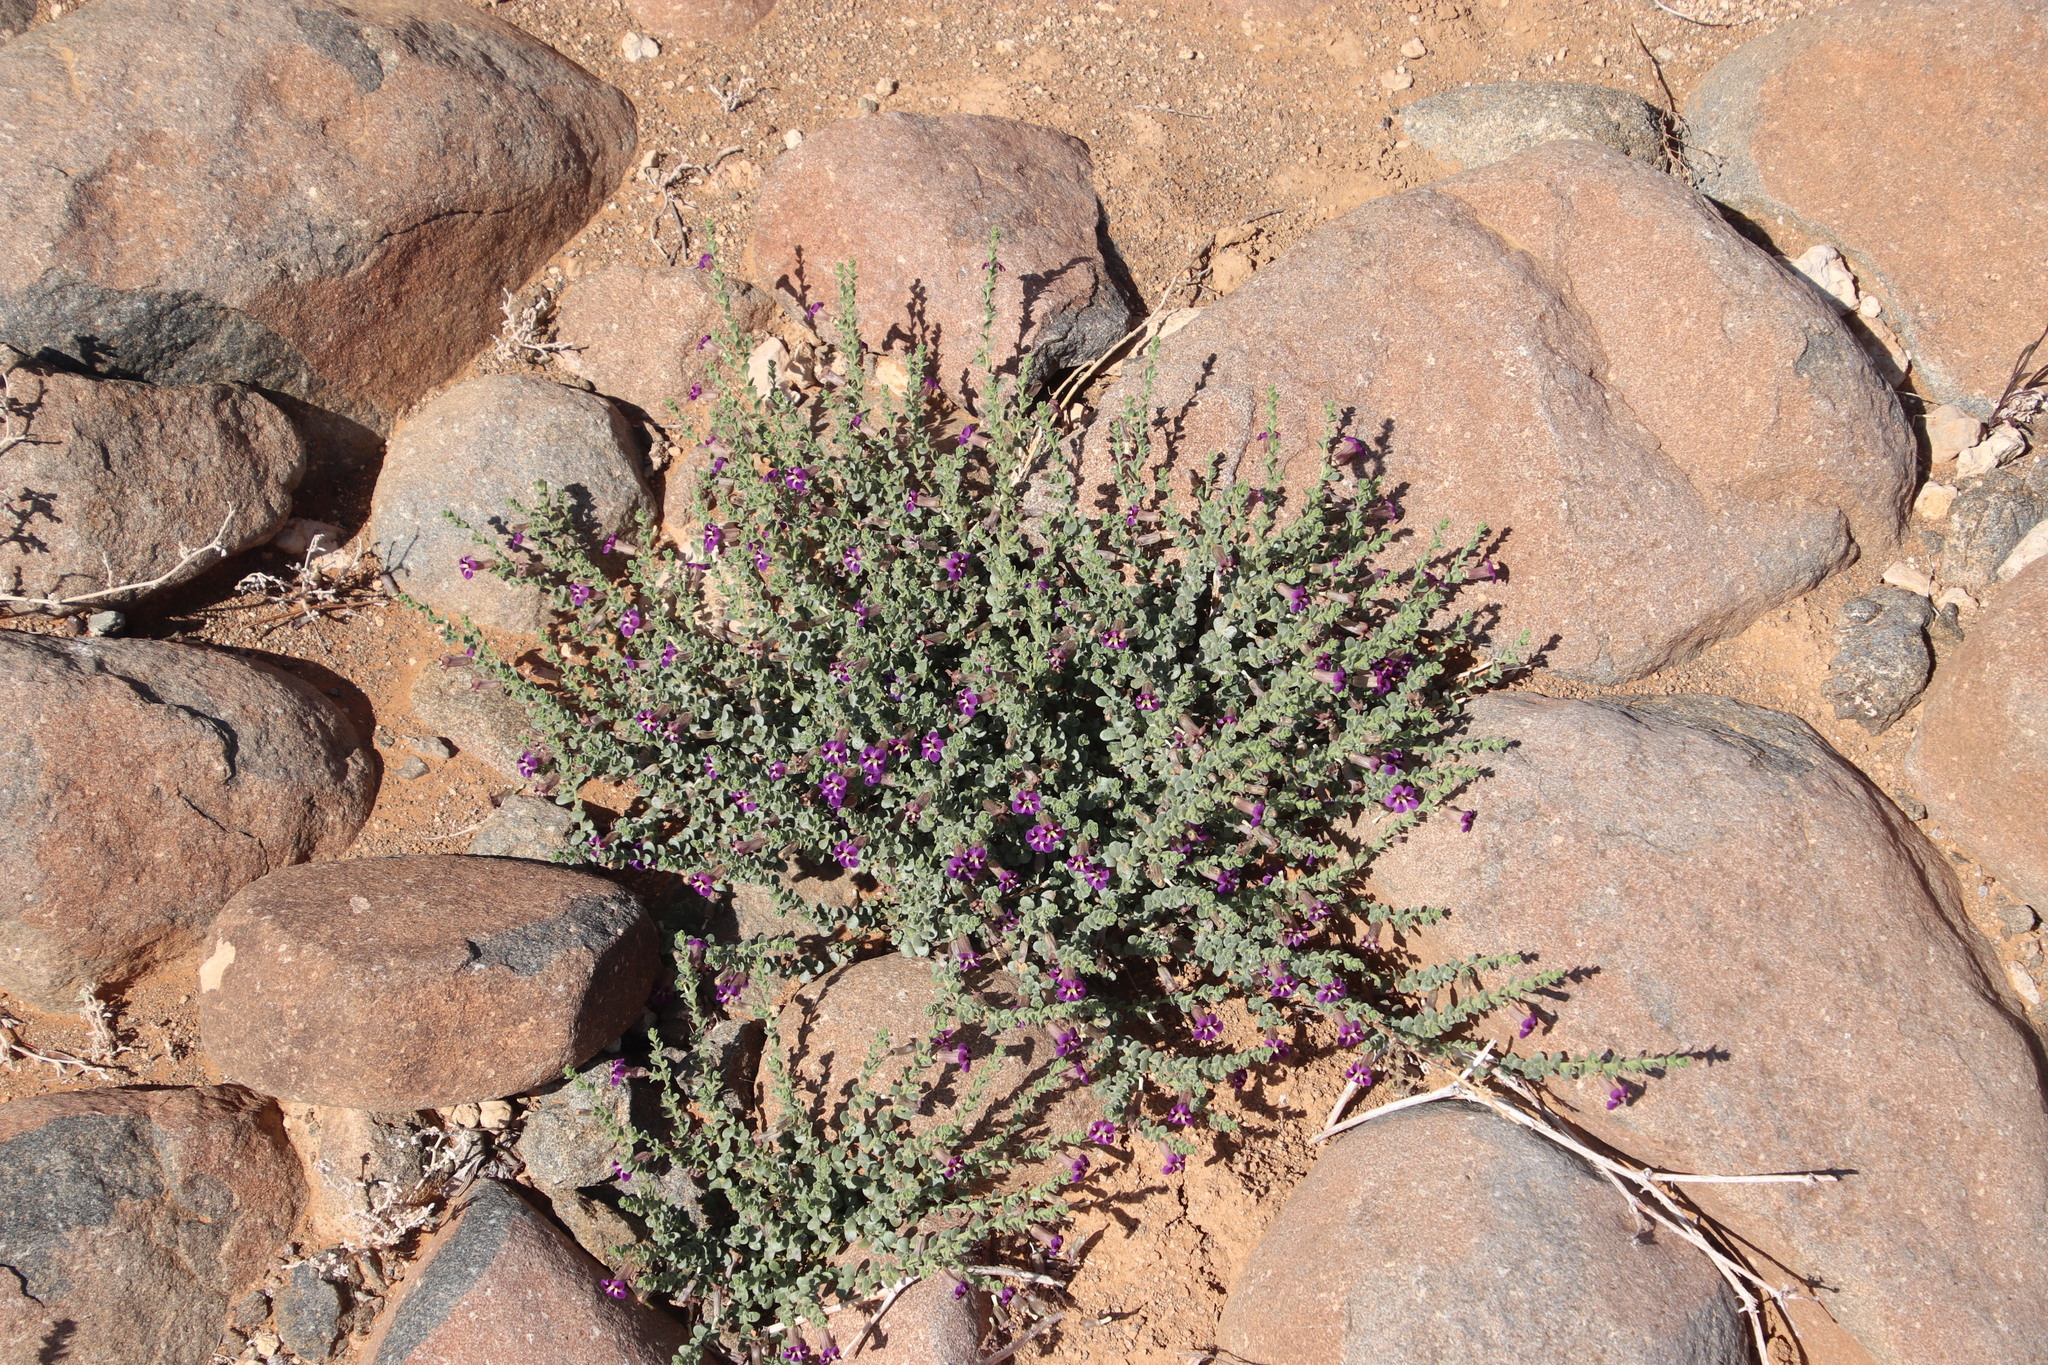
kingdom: Plantae
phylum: Tracheophyta
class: Magnoliopsida
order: Lamiales
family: Scrophulariaceae
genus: Peliostomum
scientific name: Peliostomum virgatum
